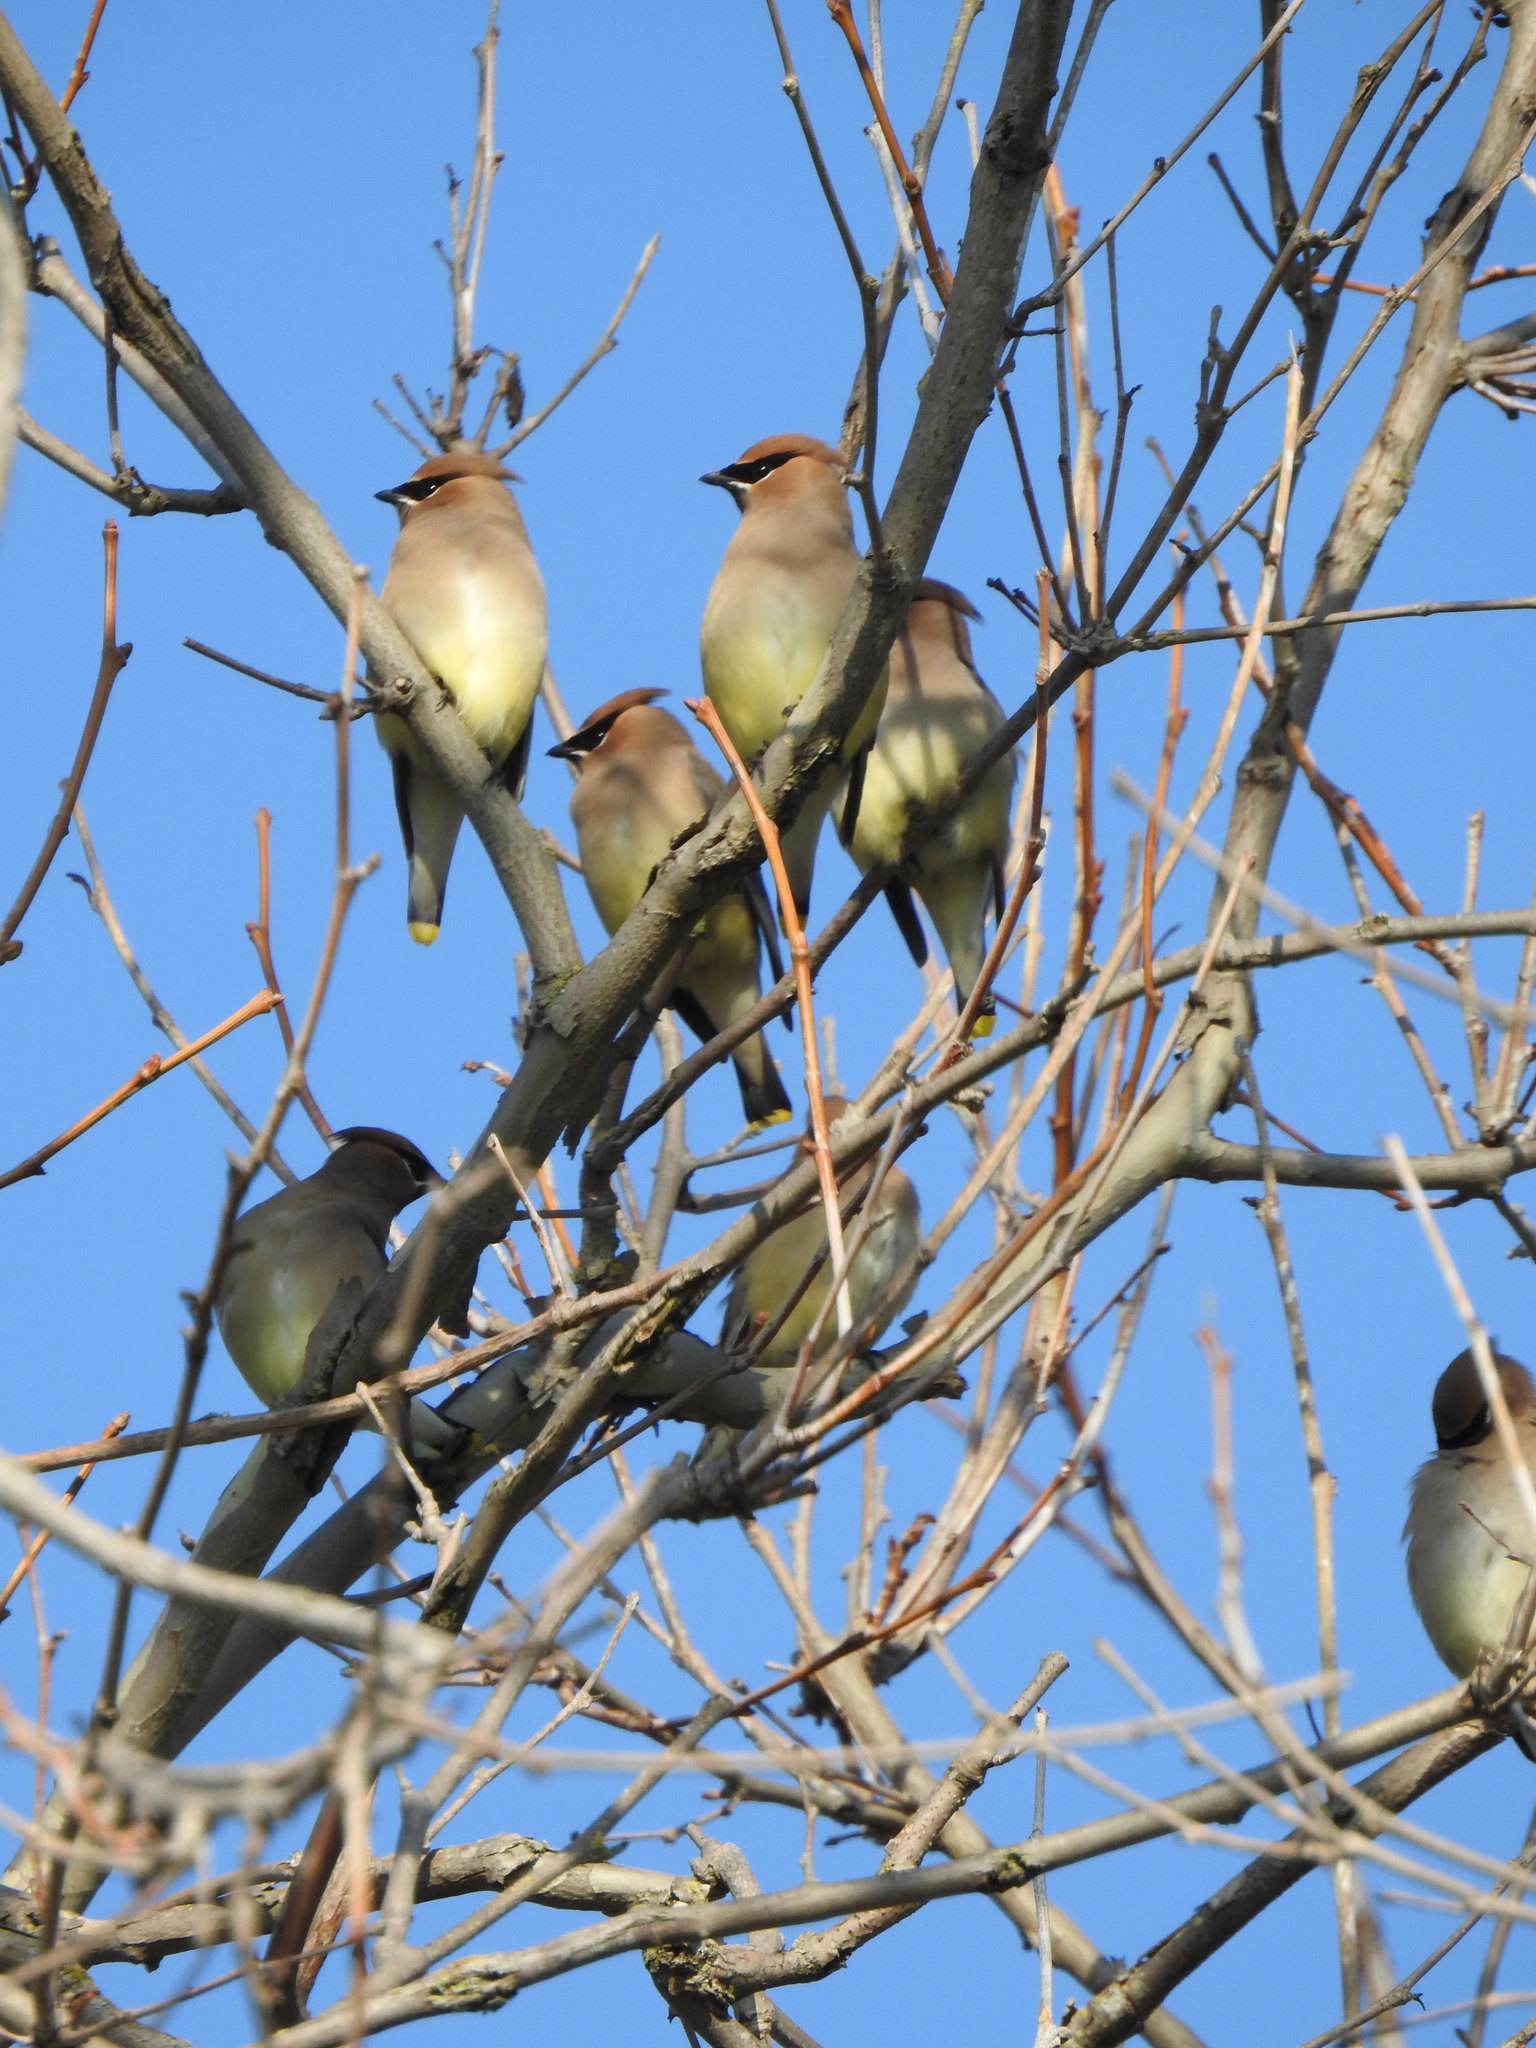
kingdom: Animalia
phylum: Chordata
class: Aves
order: Passeriformes
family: Bombycillidae
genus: Bombycilla
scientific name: Bombycilla cedrorum
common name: Cedar waxwing
